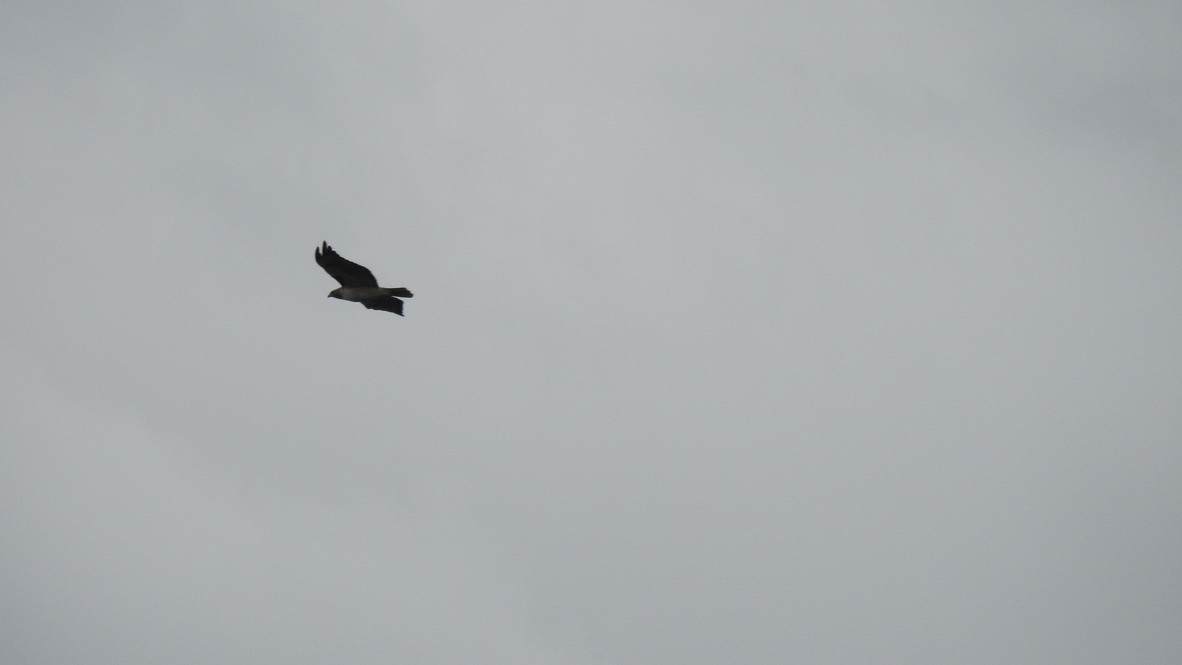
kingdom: Animalia
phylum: Chordata
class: Aves
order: Accipitriformes
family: Accipitridae
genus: Buteo
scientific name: Buteo jamaicensis
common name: Red-tailed hawk
